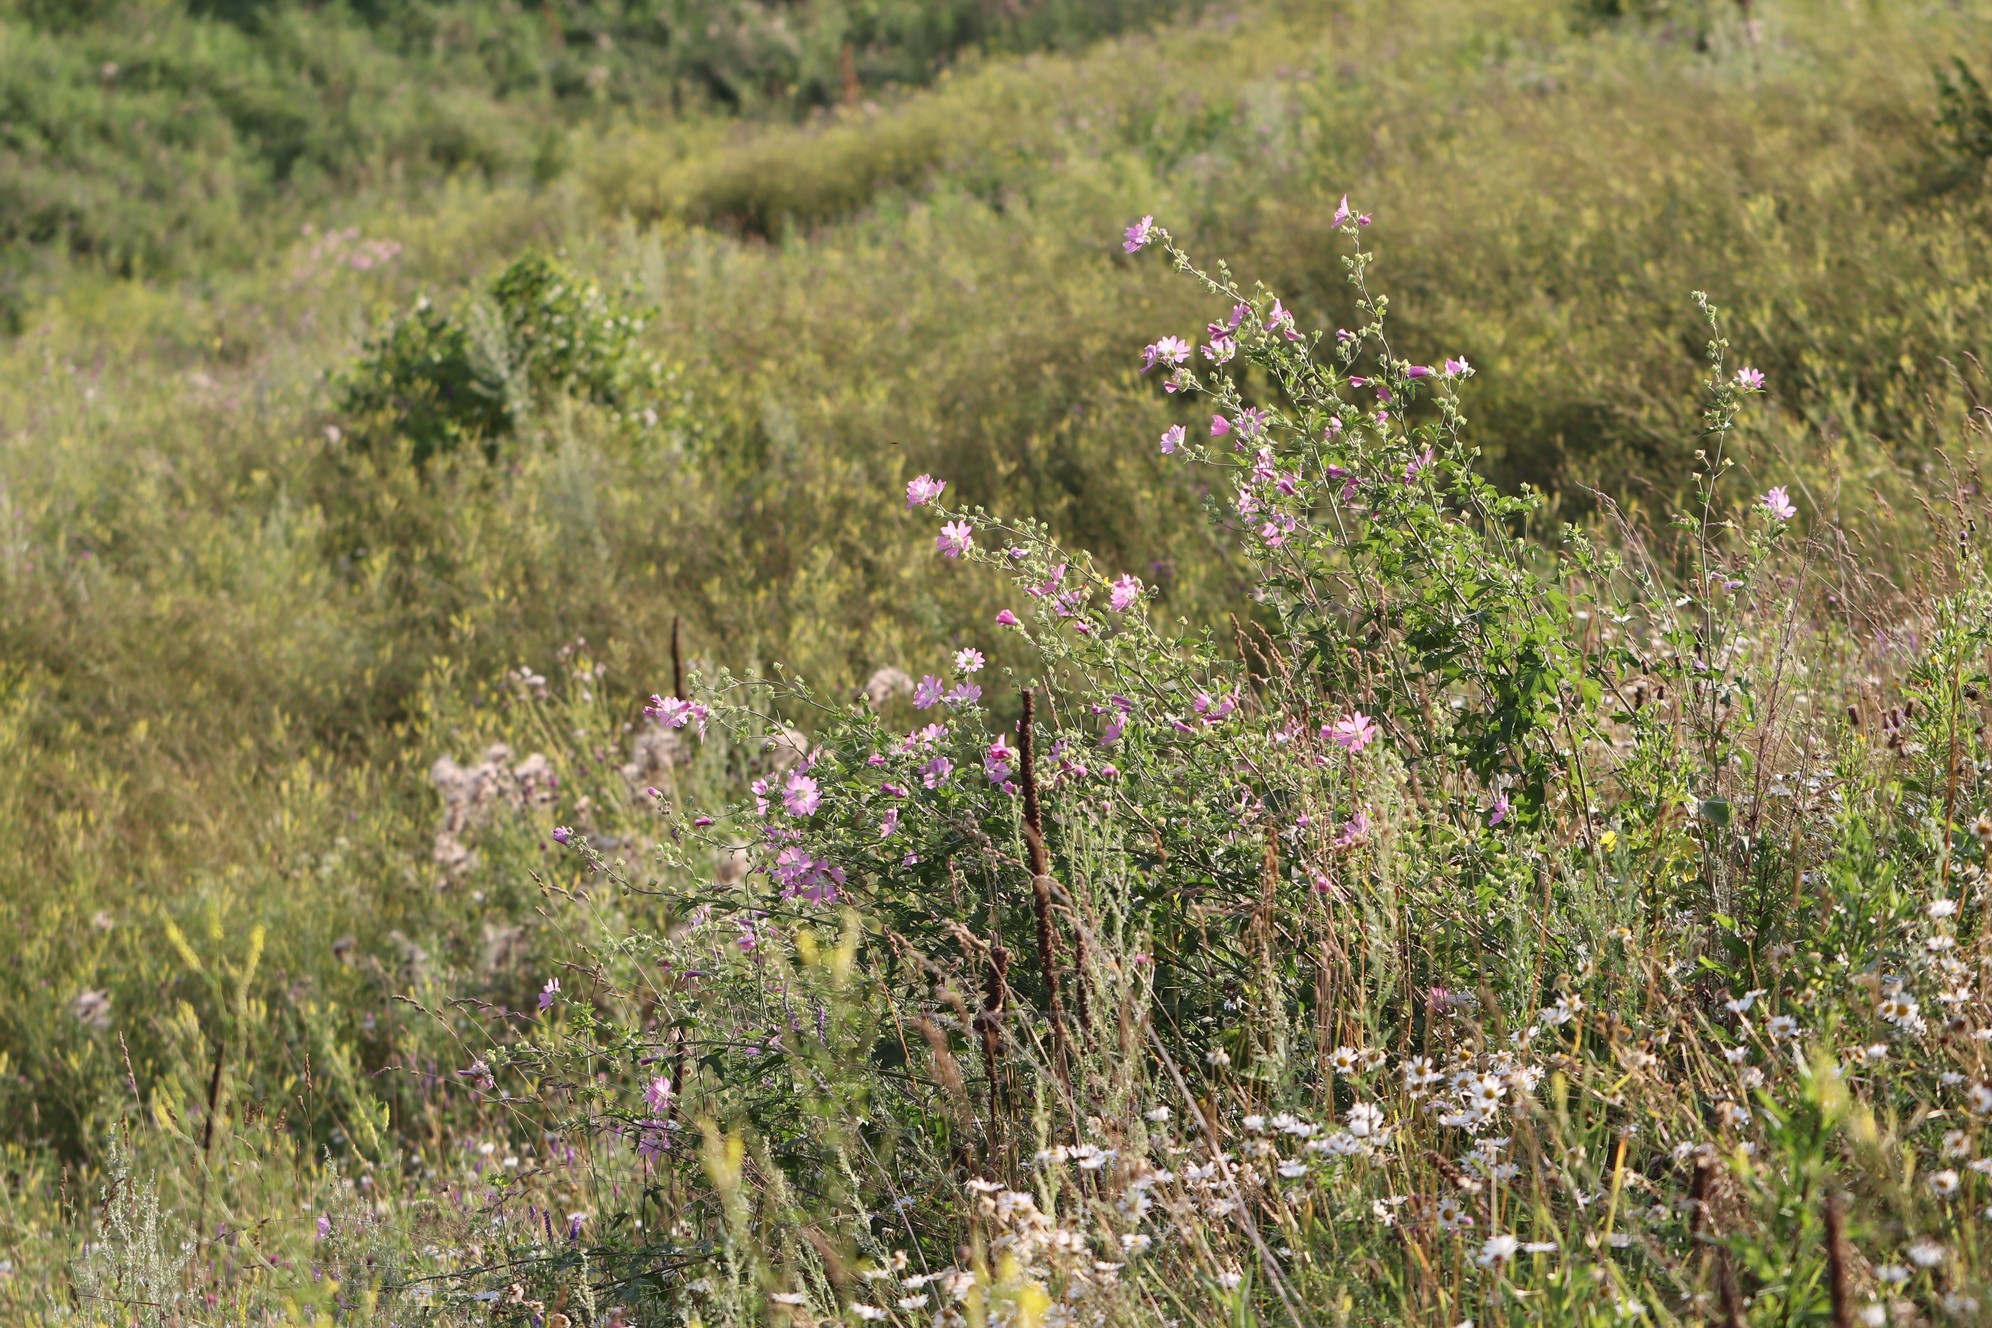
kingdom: Plantae
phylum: Tracheophyta
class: Magnoliopsida
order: Malvales
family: Malvaceae
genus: Malva
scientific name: Malva thuringiaca
